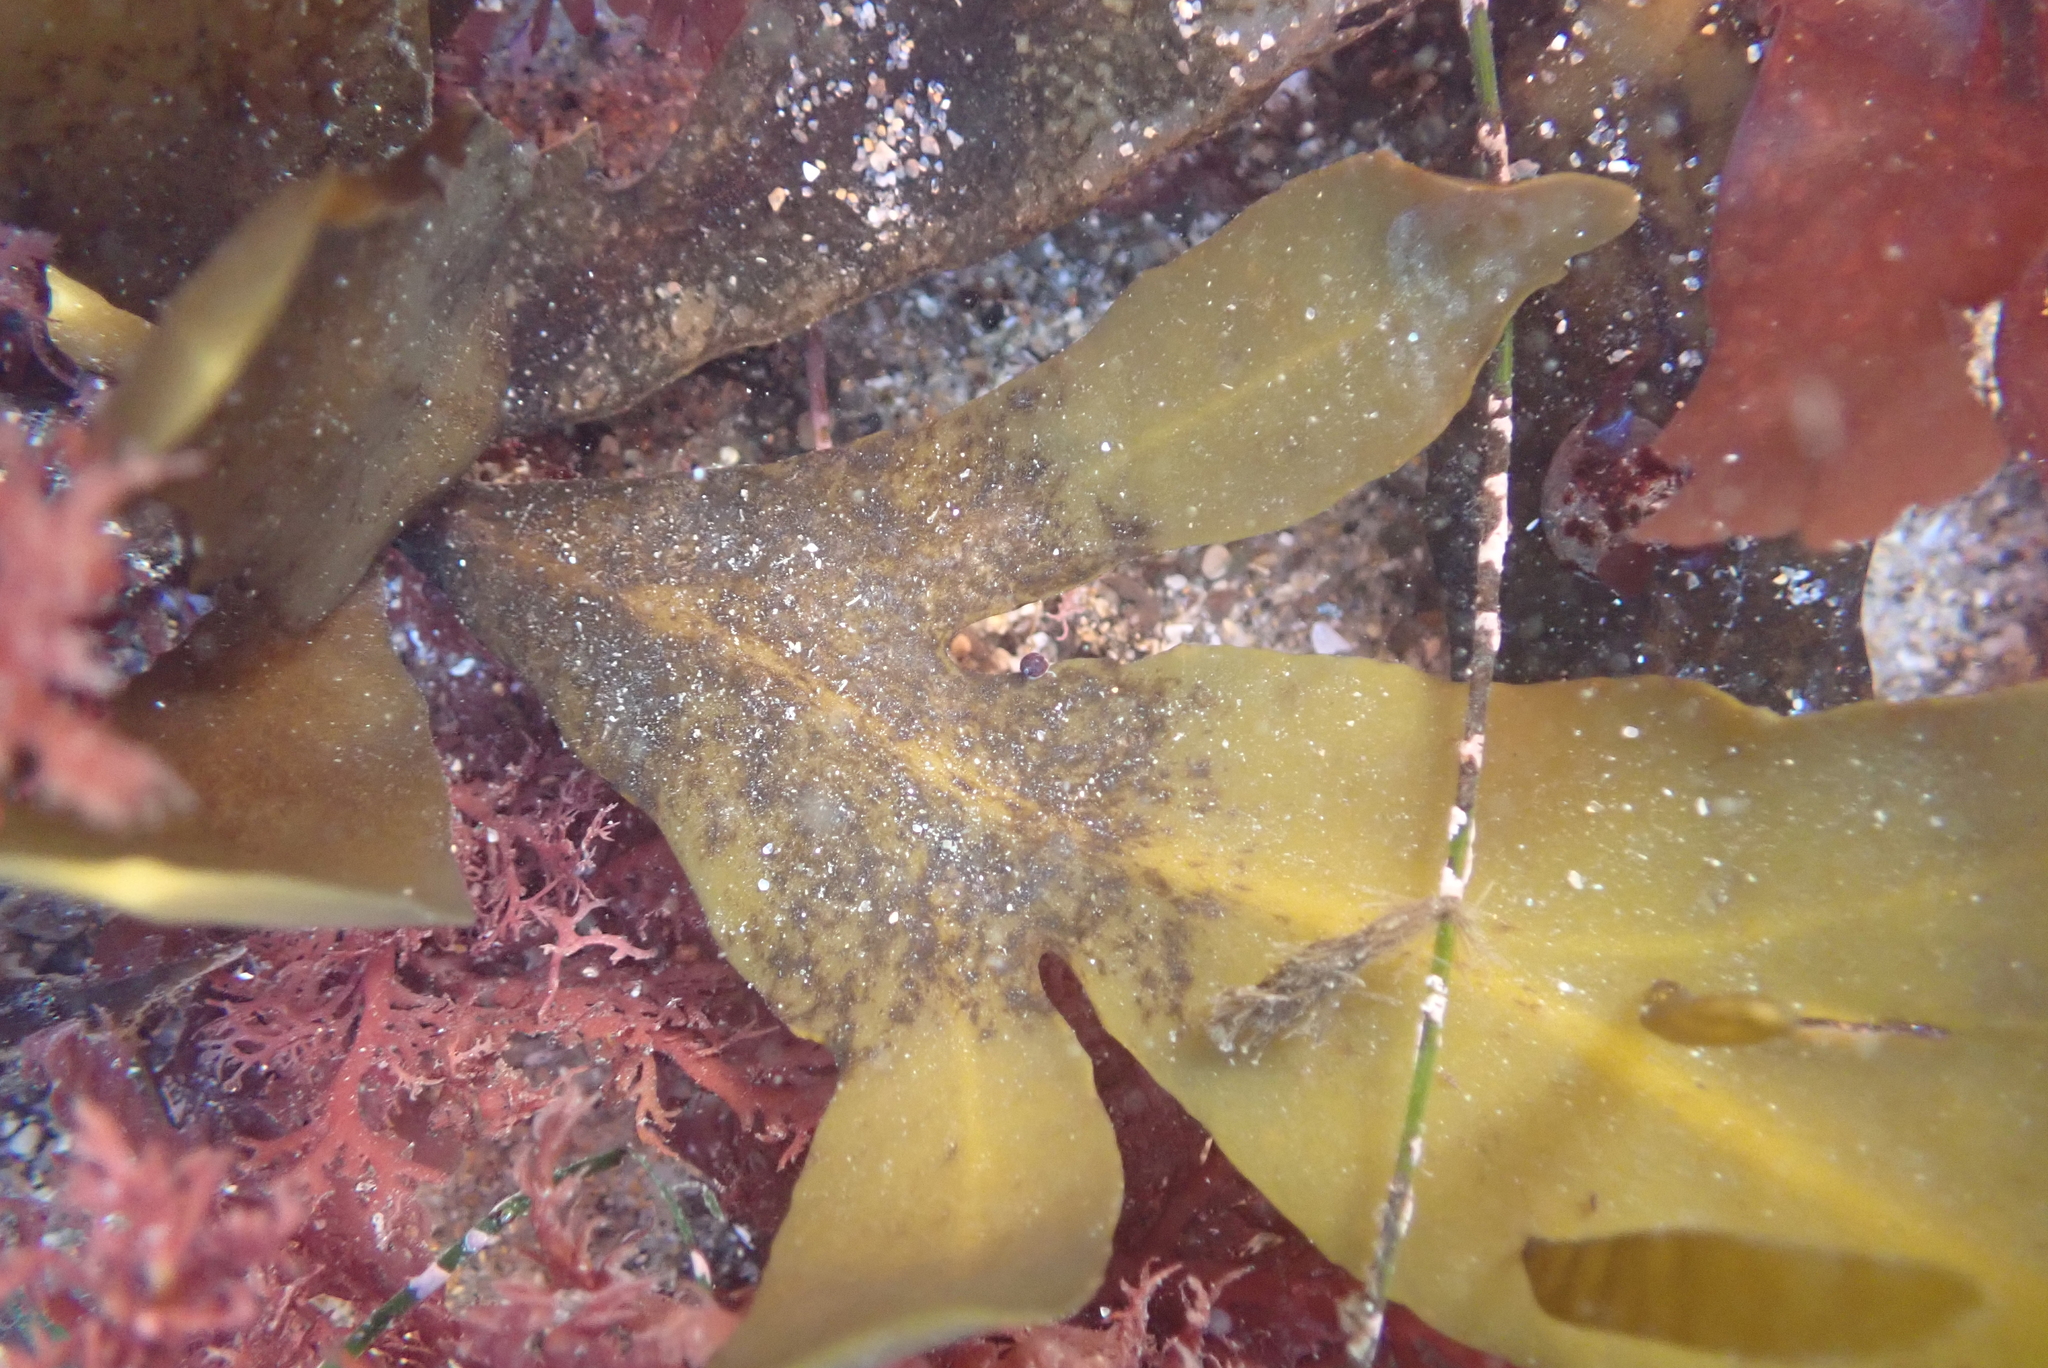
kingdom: Chromista
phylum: Ochrophyta
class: Phaeophyceae
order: Fucales
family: Sargassaceae
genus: Stephanocystis
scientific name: Stephanocystis
